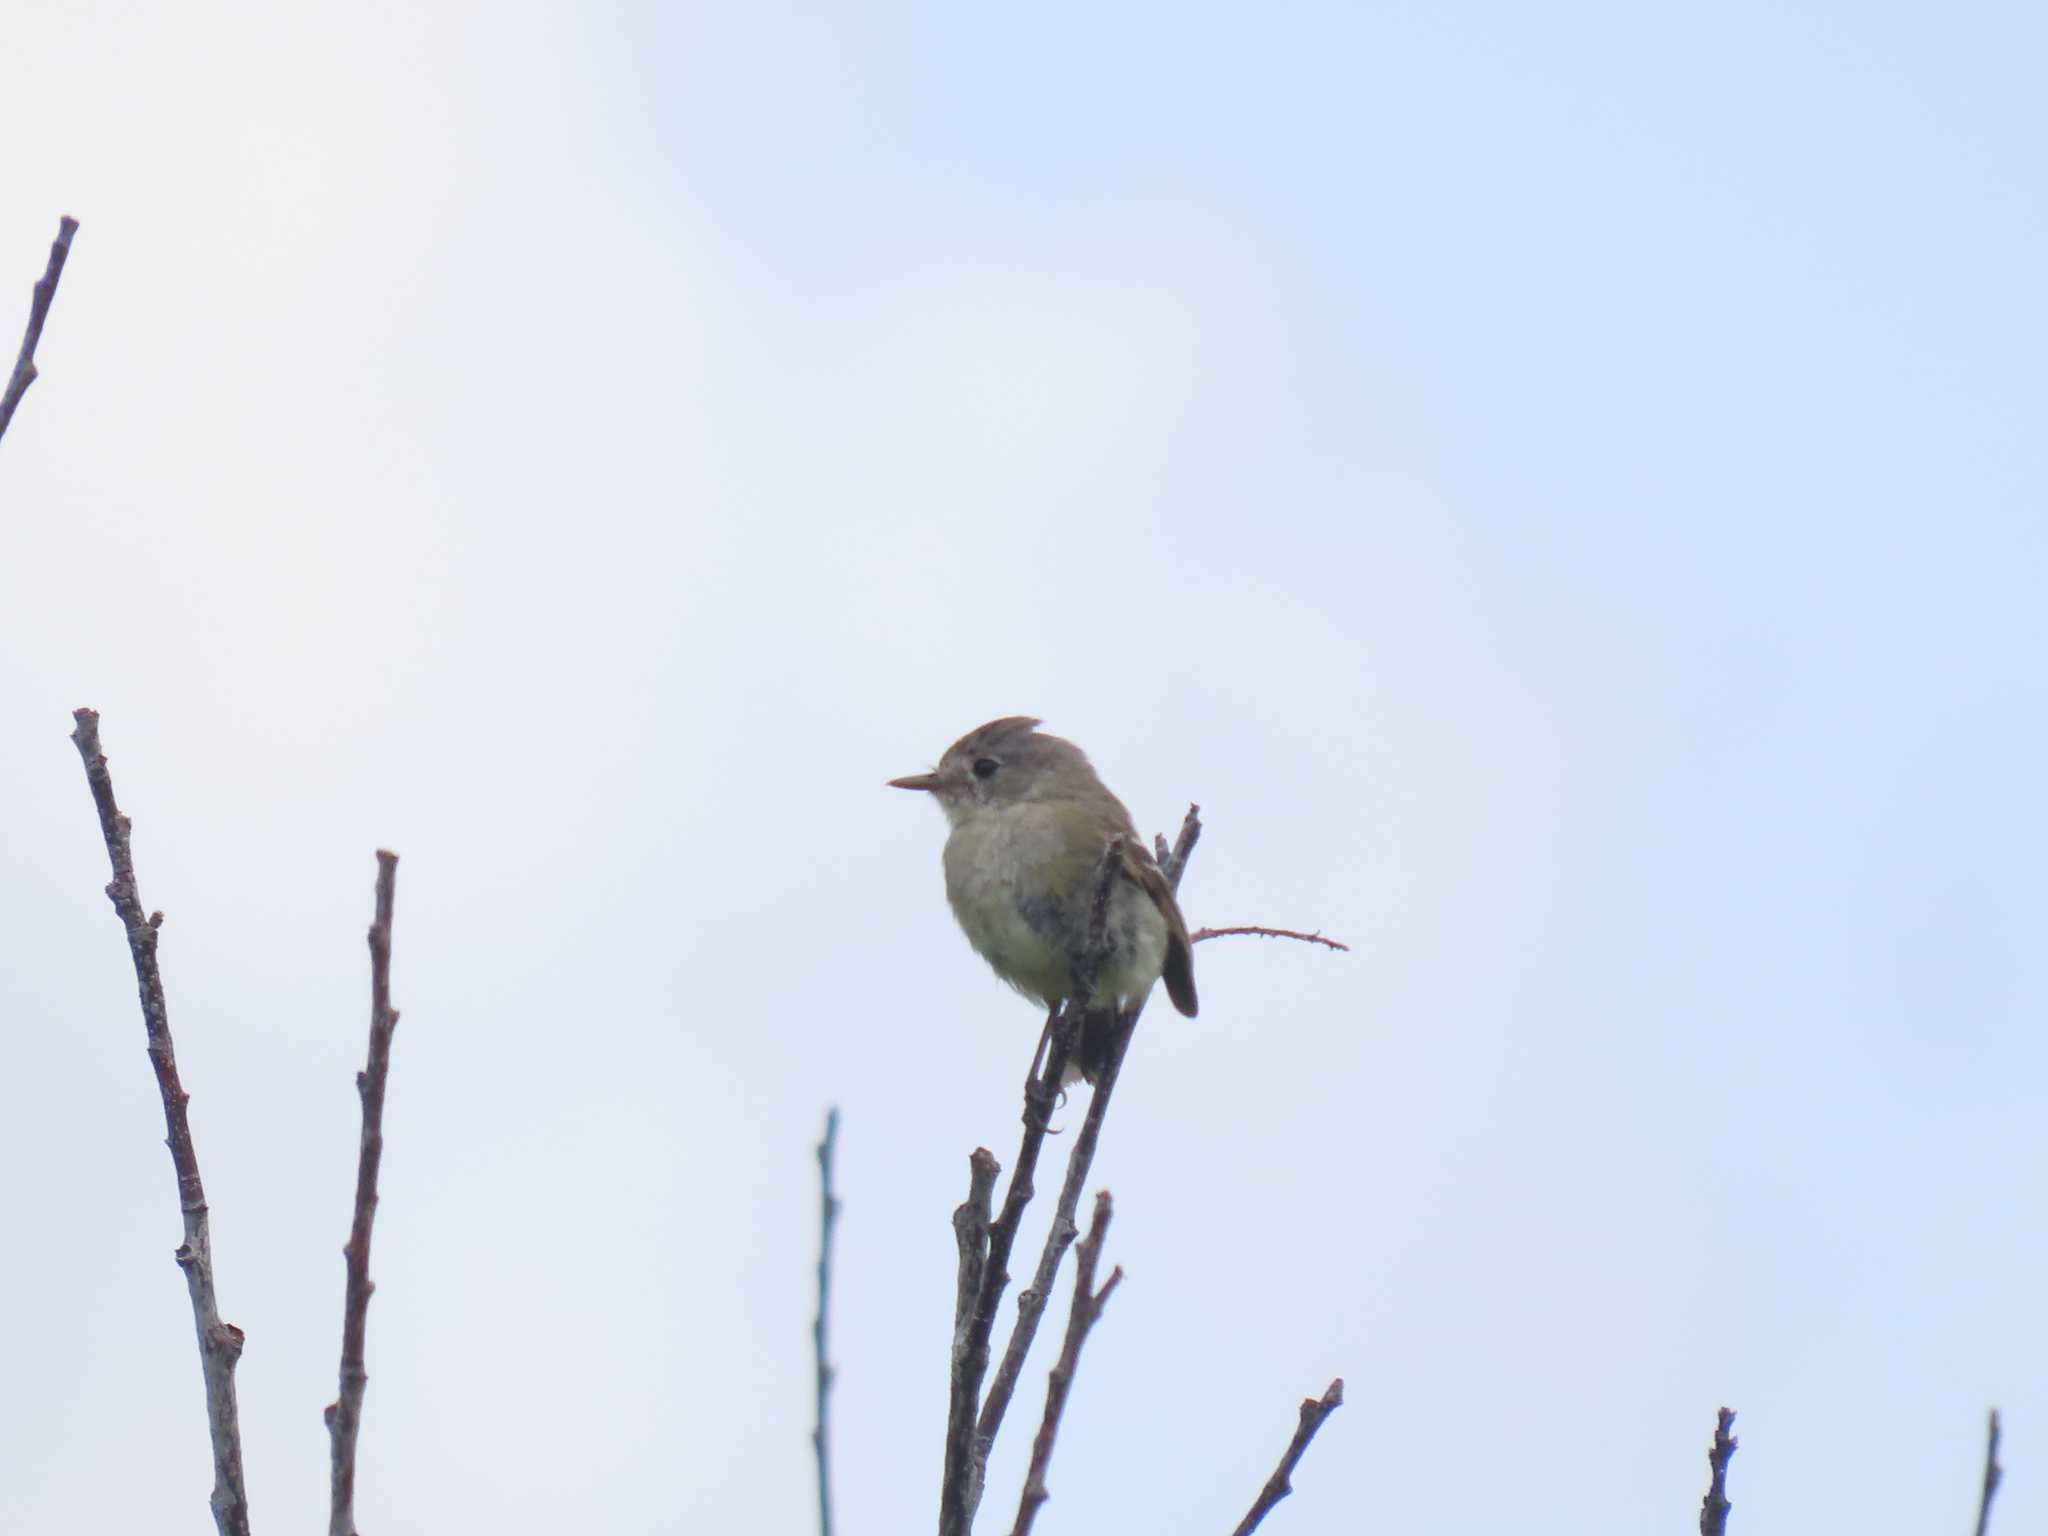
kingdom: Animalia
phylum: Chordata
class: Aves
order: Passeriformes
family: Tyrannidae
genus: Empidonax
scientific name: Empidonax oberholseri
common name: Dusky flycatcher
